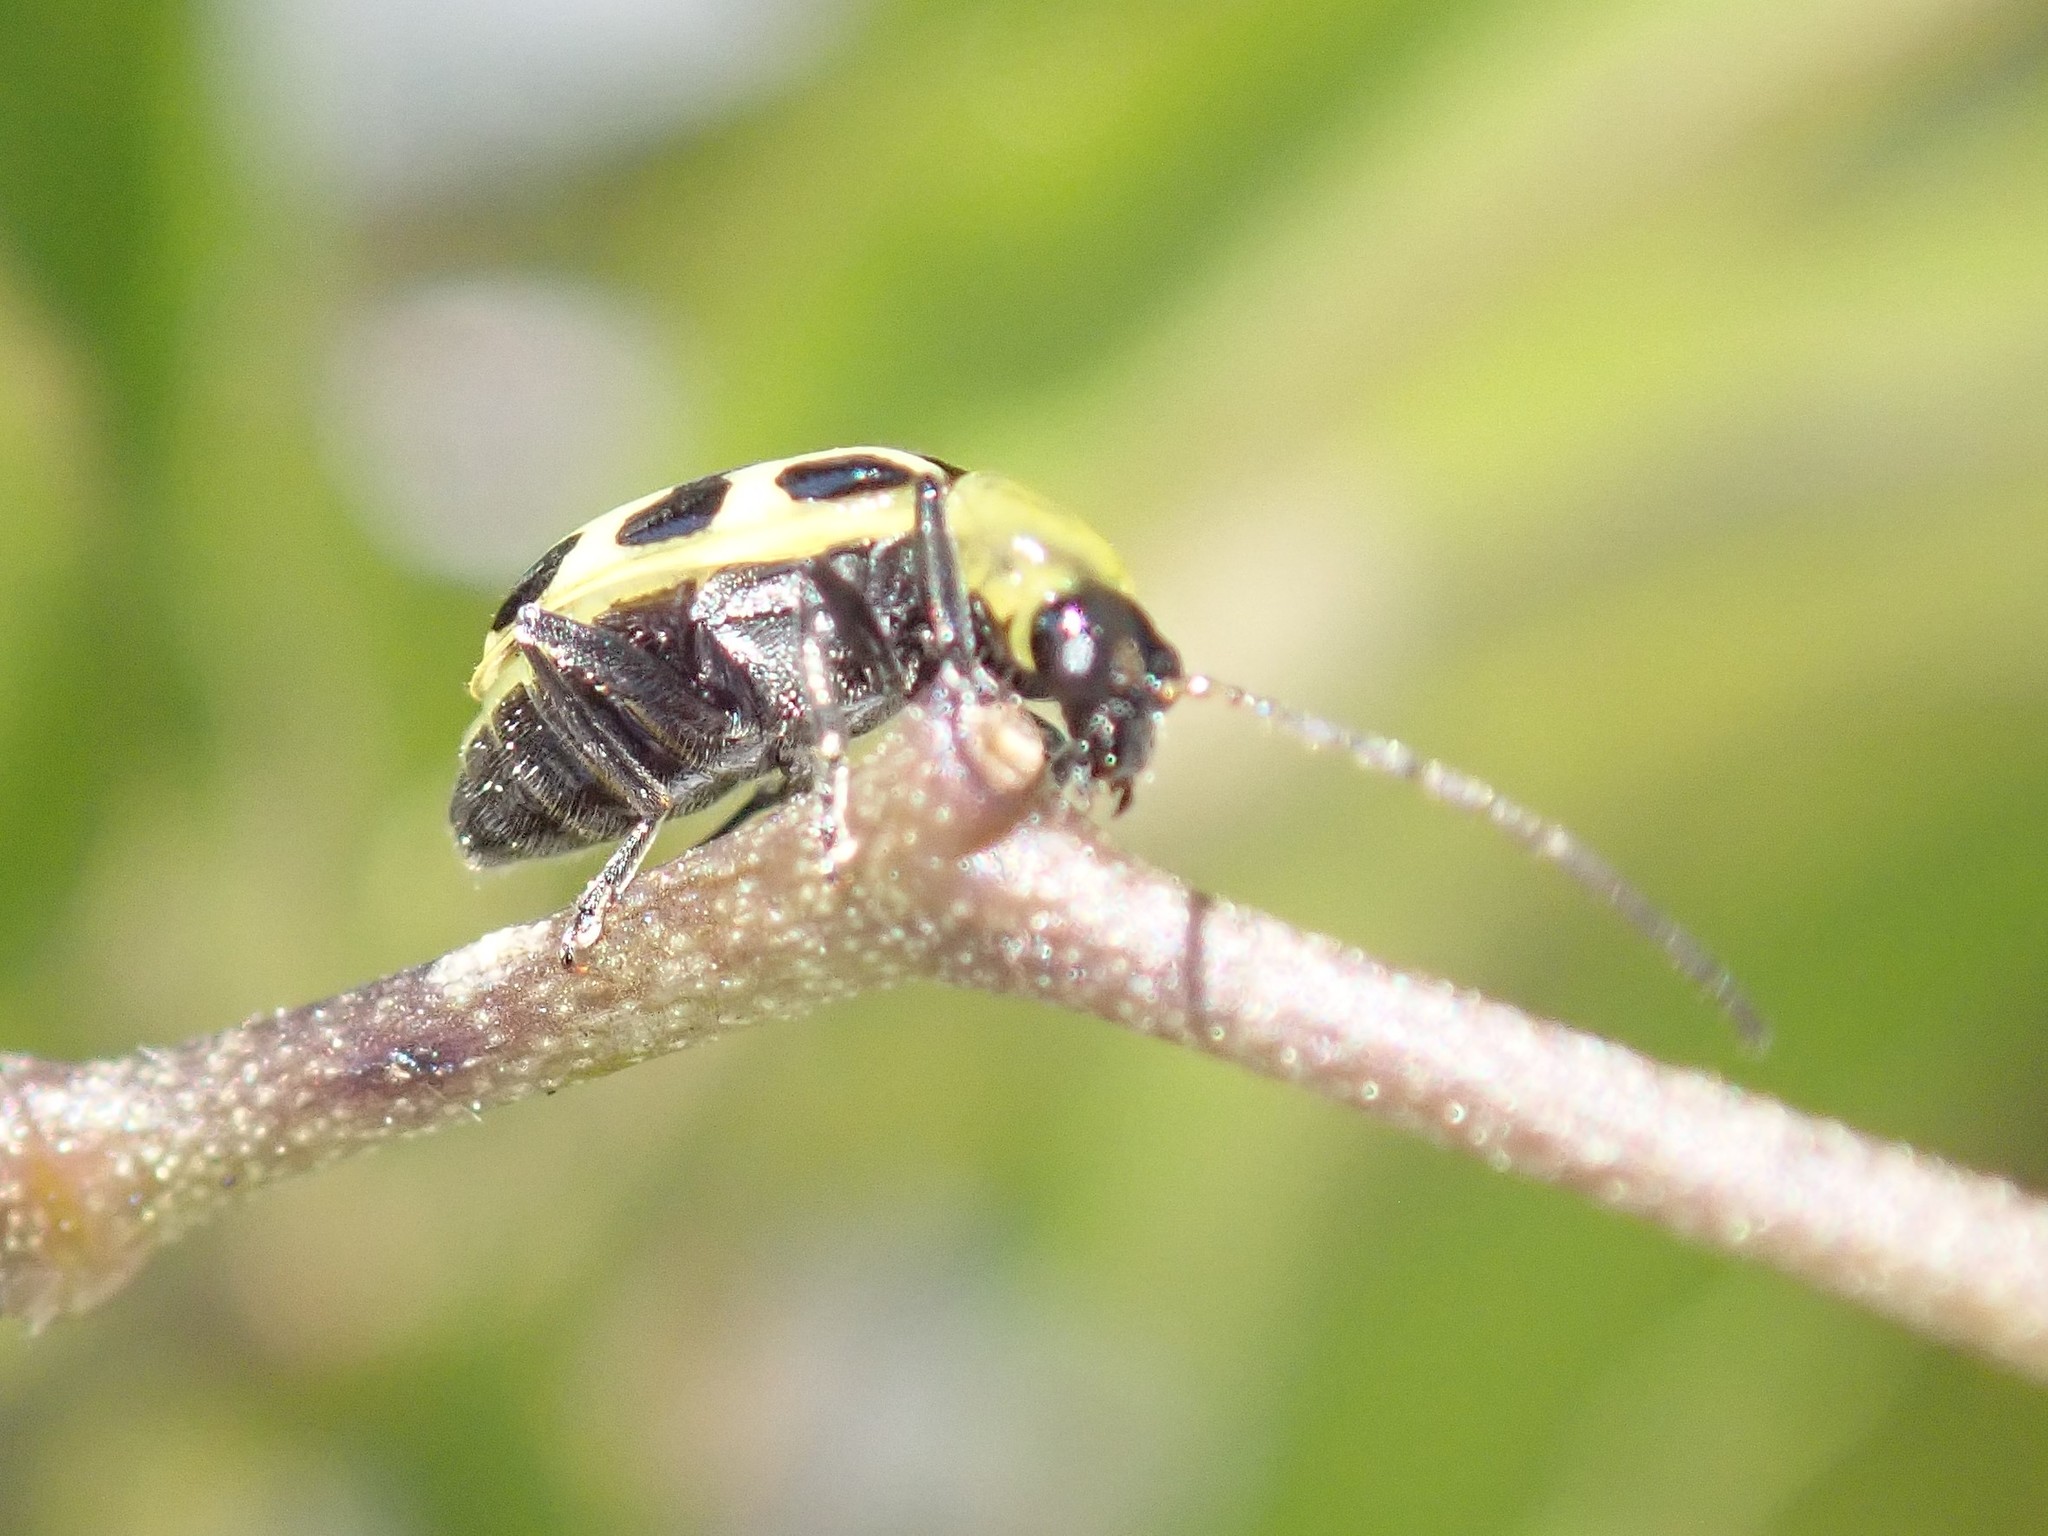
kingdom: Animalia
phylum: Arthropoda
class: Insecta
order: Coleoptera
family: Chrysomelidae
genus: Diabrotica
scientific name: Diabrotica undecimpunctata
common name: Spotted cucumber beetle
